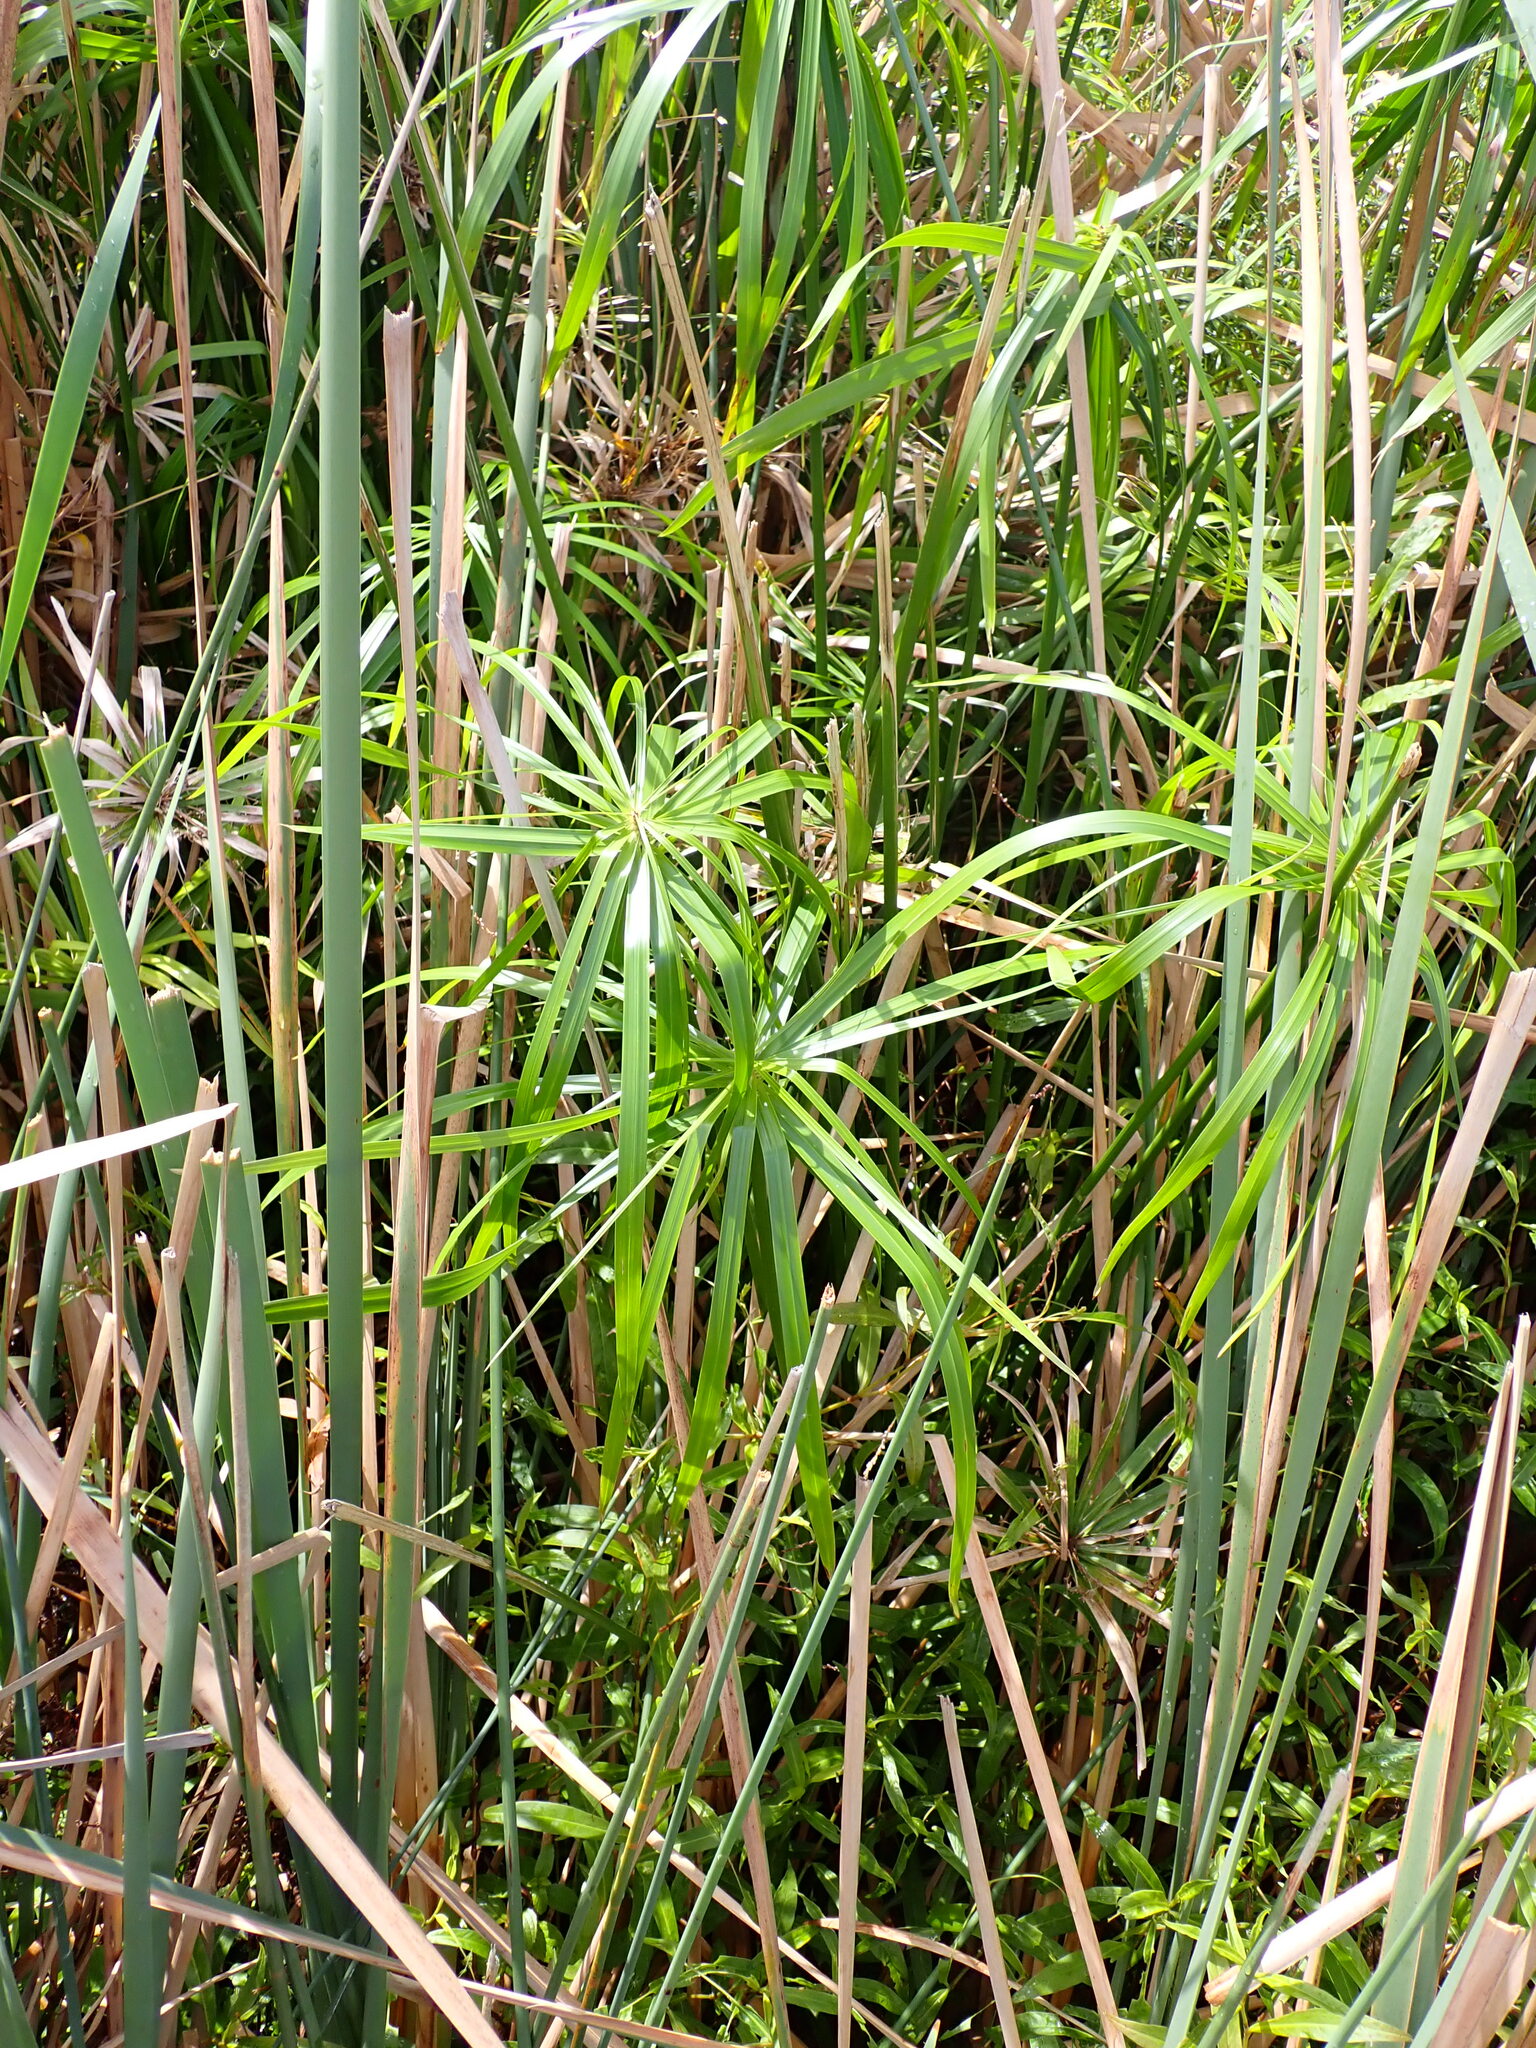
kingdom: Plantae
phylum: Tracheophyta
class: Liliopsida
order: Poales
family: Cyperaceae
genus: Cyperus
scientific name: Cyperus alternifolius
